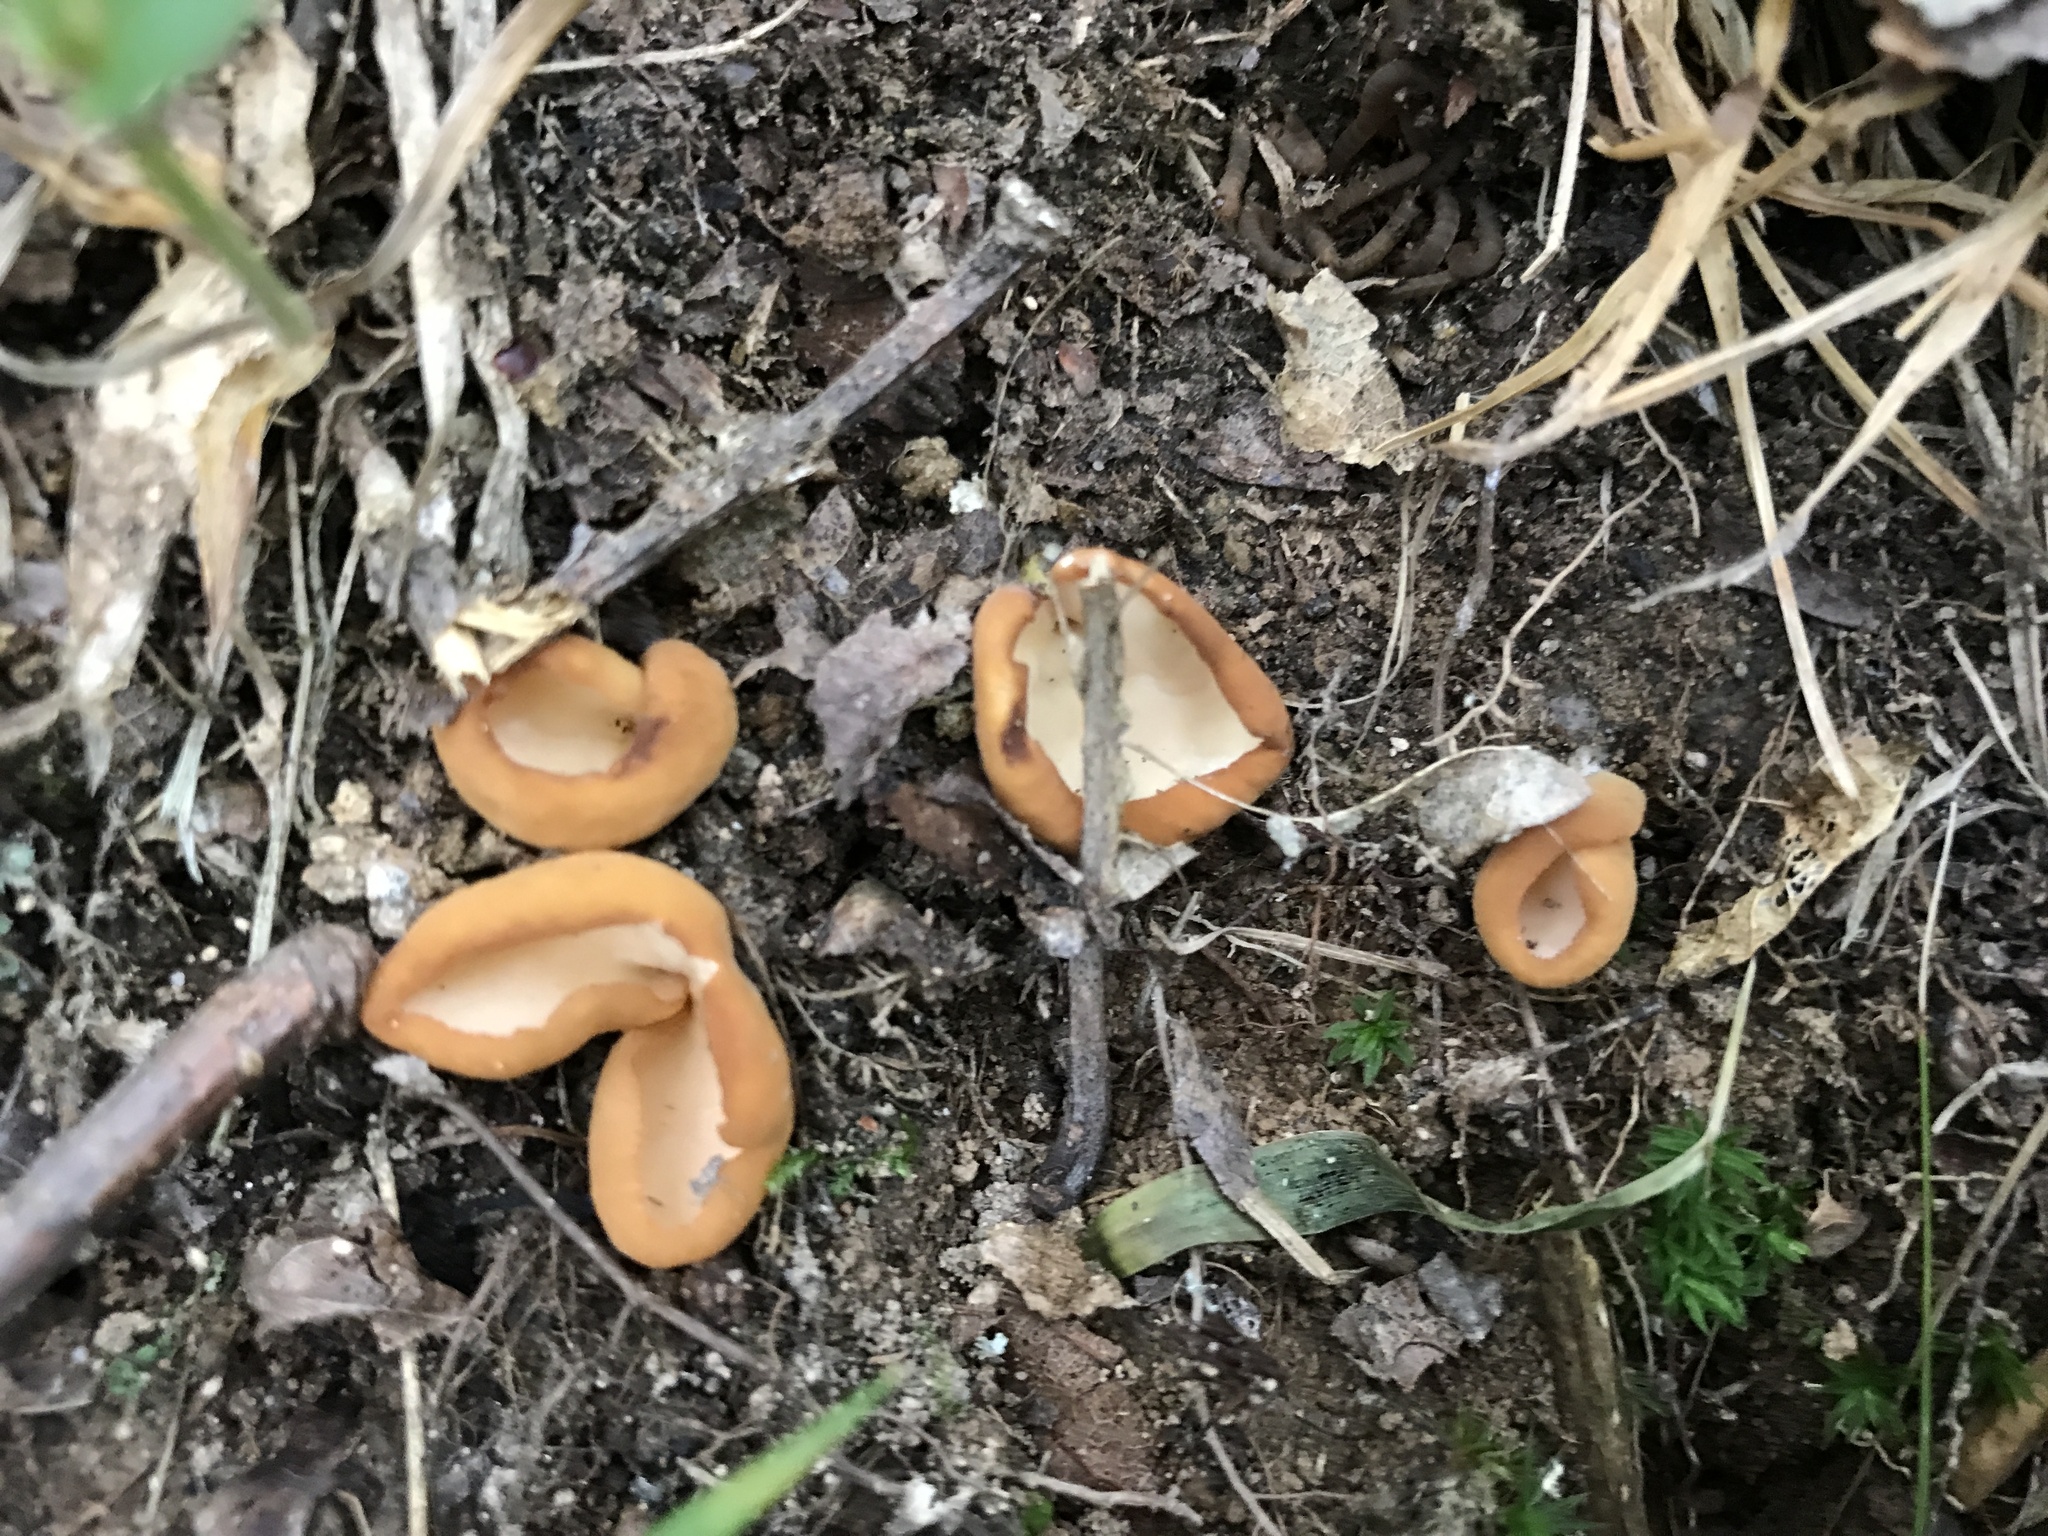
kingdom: Fungi
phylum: Ascomycota
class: Pezizomycetes
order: Pezizales
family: Otideaceae
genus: Otidea
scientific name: Otidea onotica
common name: Hare's ear
